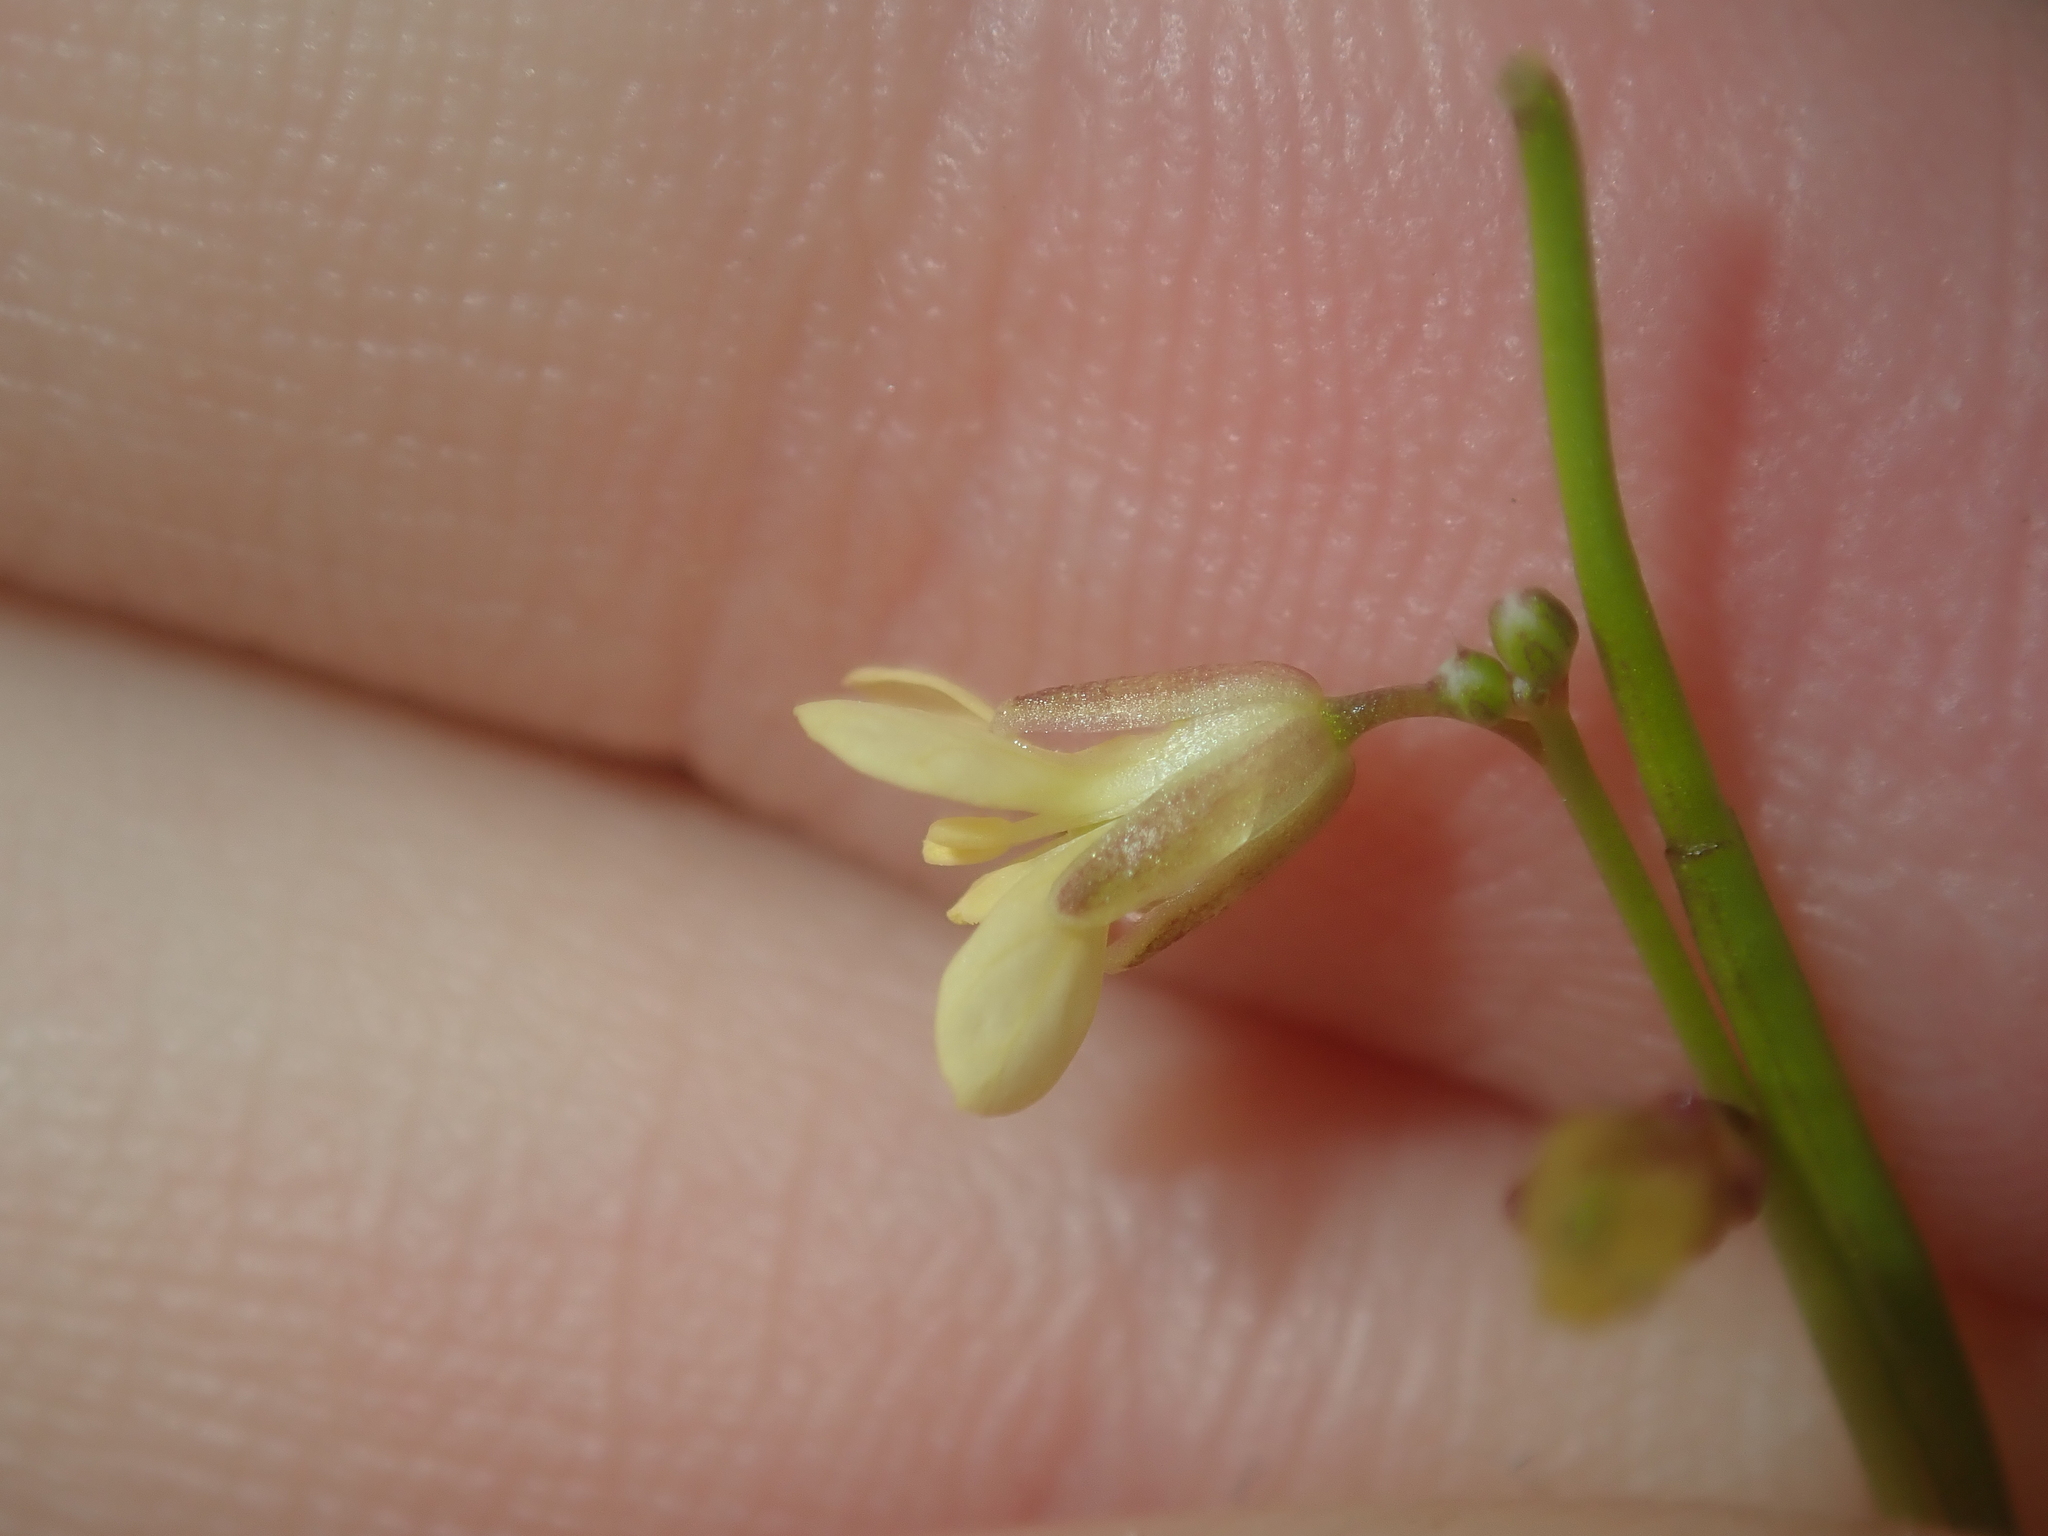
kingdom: Plantae
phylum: Tracheophyta
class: Magnoliopsida
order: Brassicales
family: Brassicaceae
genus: Brassica
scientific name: Brassica tournefortii
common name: Pale cabbage
